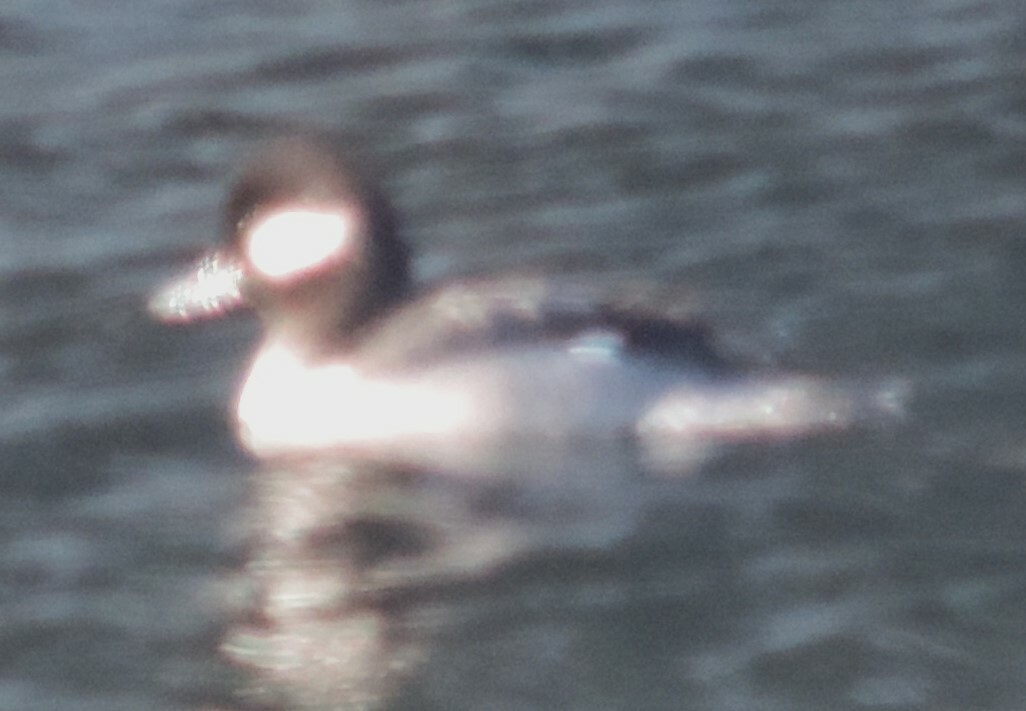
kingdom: Animalia
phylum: Chordata
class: Aves
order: Anseriformes
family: Anatidae
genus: Bucephala
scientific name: Bucephala albeola
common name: Bufflehead
